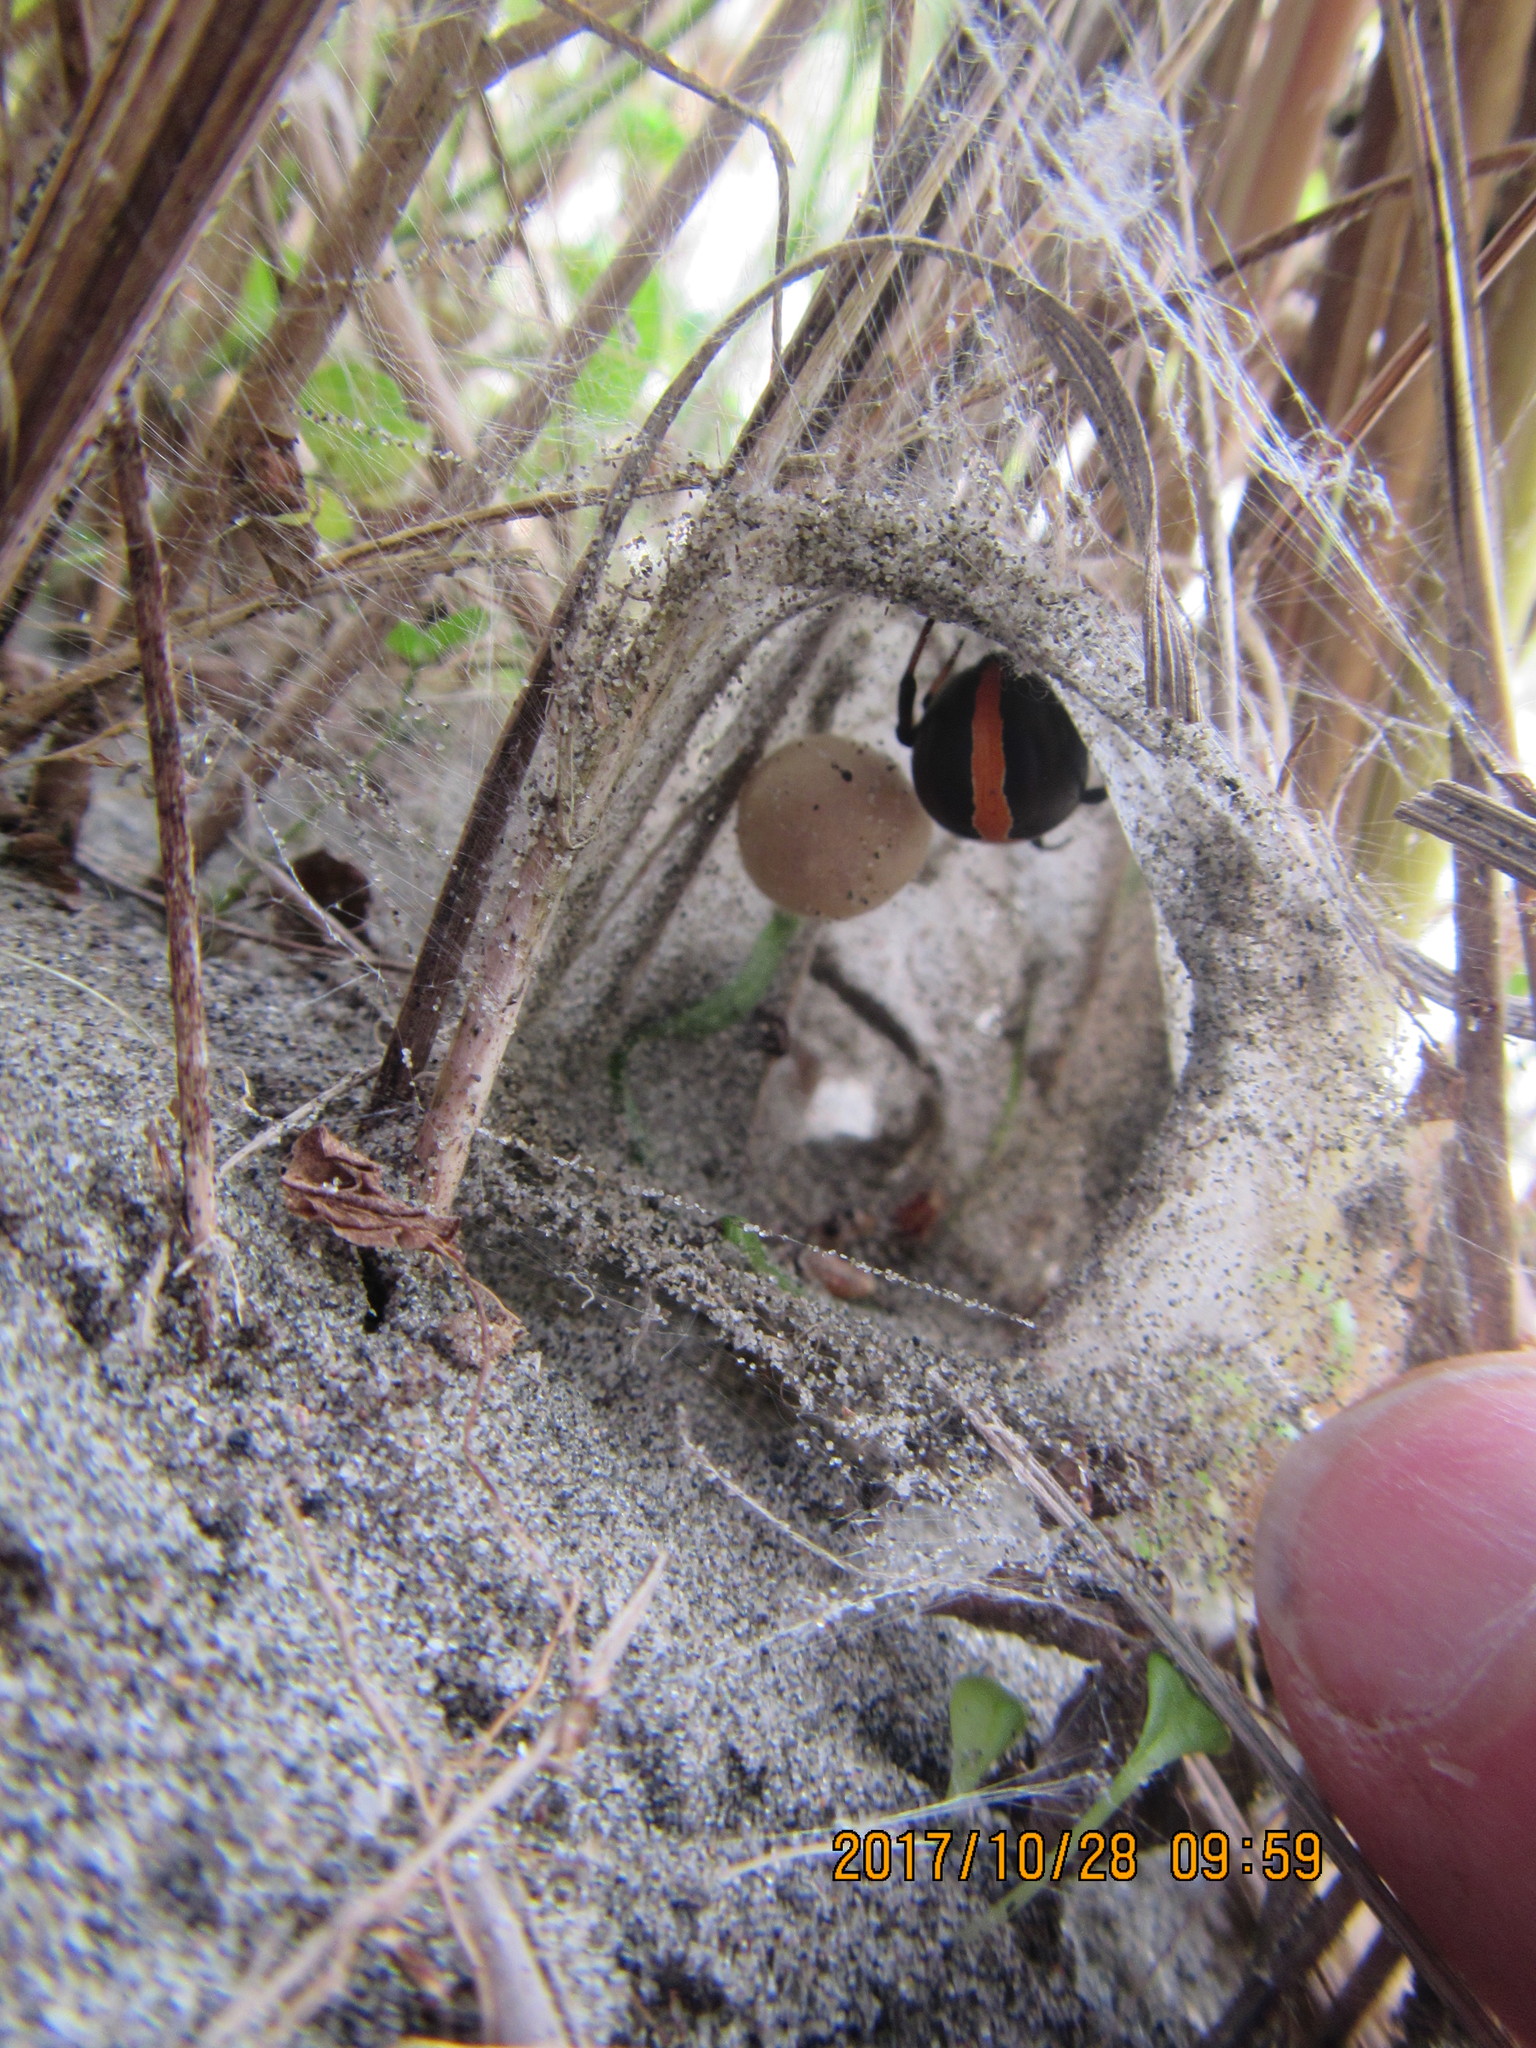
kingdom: Animalia
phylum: Arthropoda
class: Arachnida
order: Araneae
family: Theridiidae
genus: Latrodectus
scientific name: Latrodectus katipo
